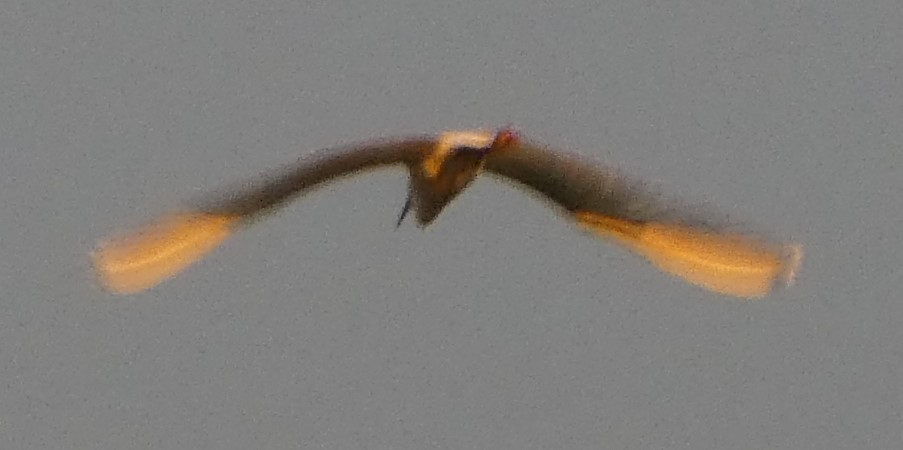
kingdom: Animalia
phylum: Chordata
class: Aves
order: Pelecaniformes
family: Ardeidae
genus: Egretta
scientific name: Egretta garzetta
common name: Little egret
